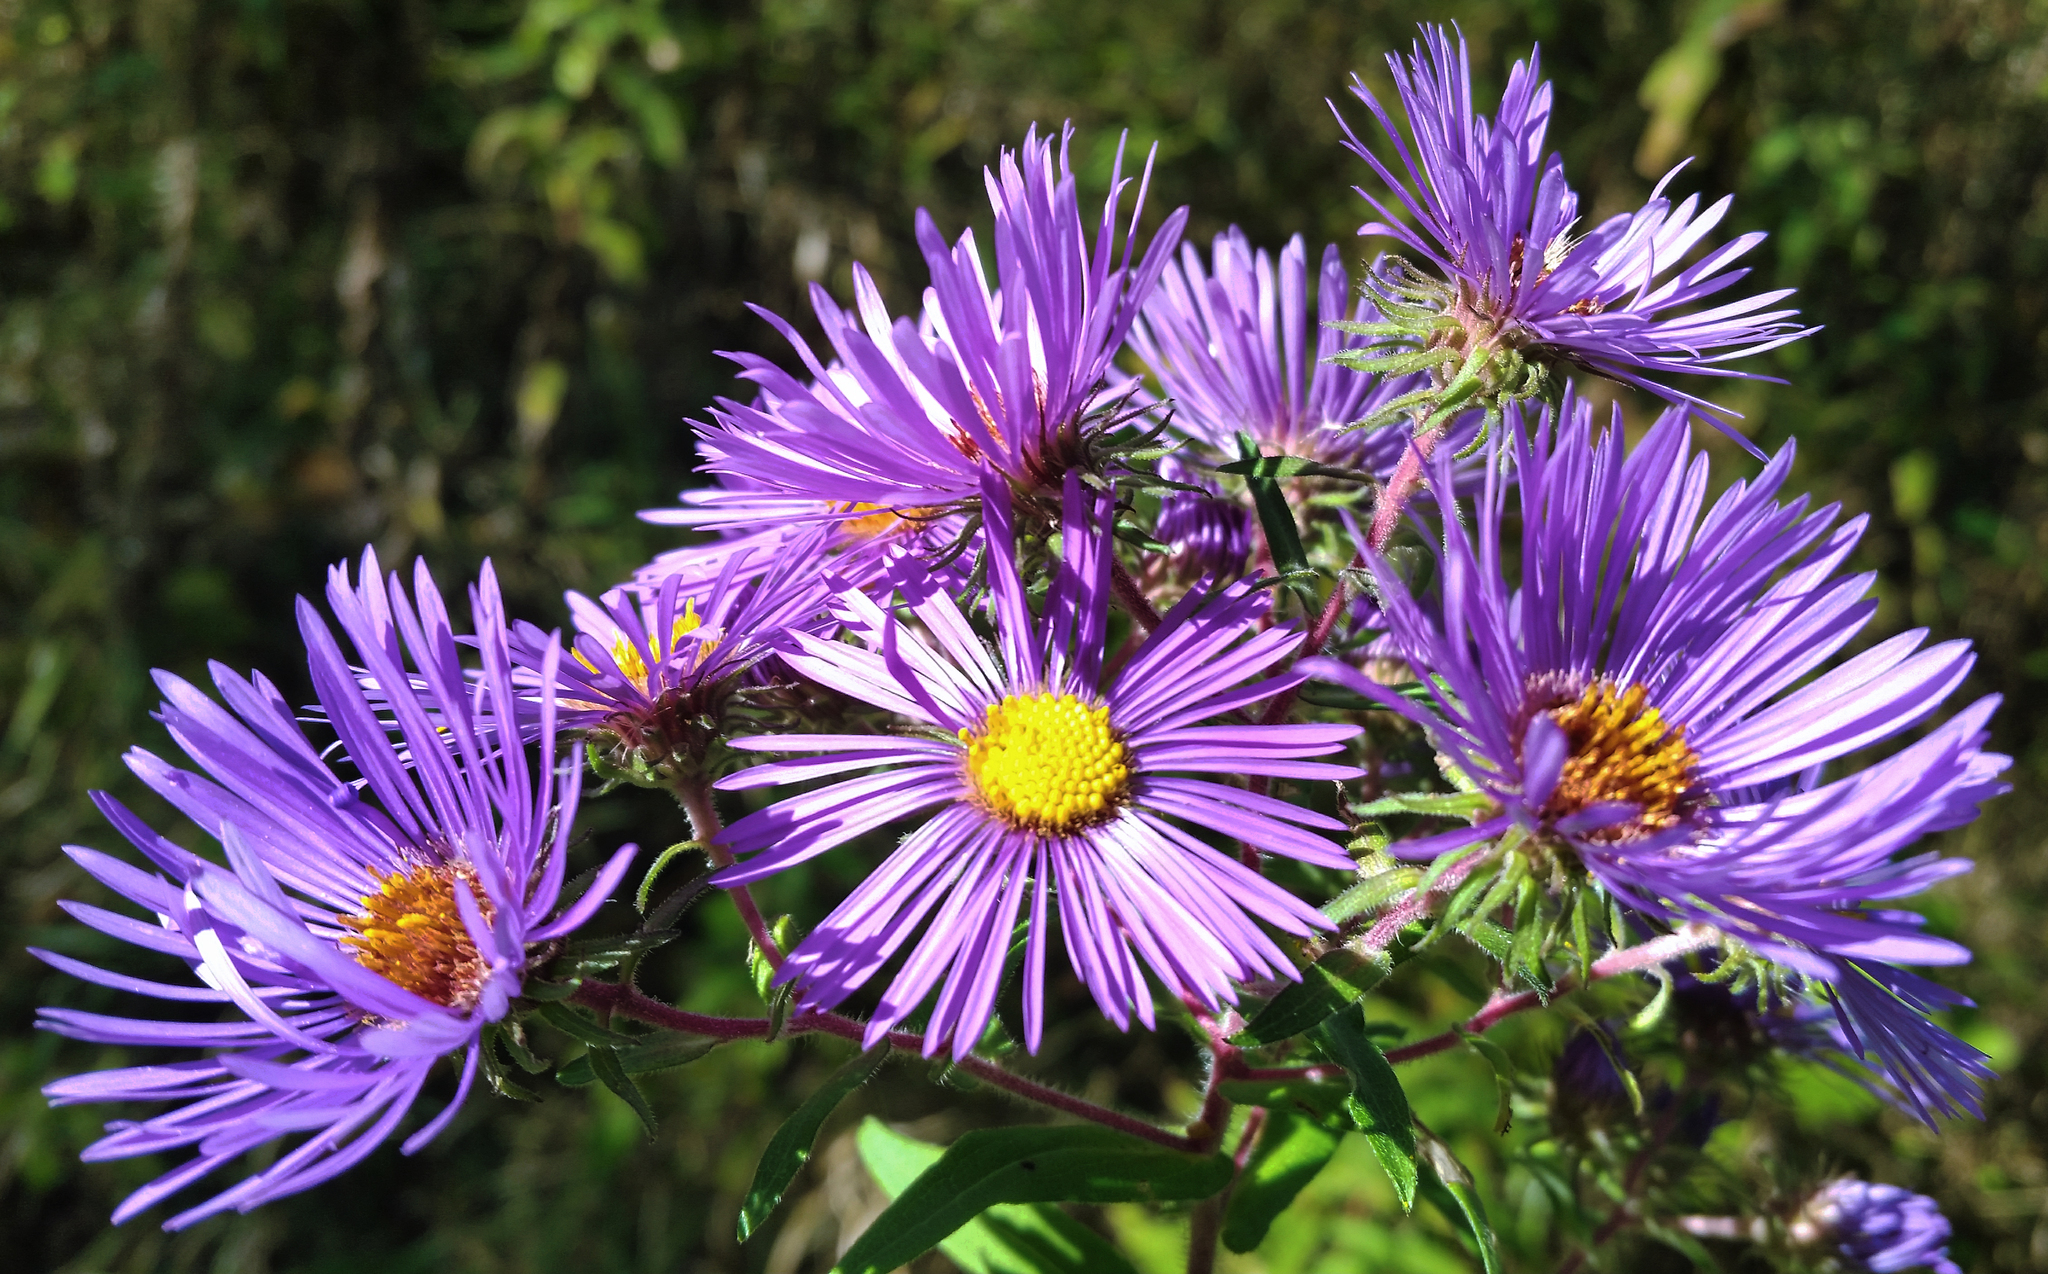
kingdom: Plantae
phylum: Tracheophyta
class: Magnoliopsida
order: Asterales
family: Asteraceae
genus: Symphyotrichum
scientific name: Symphyotrichum novae-angliae
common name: Michaelmas daisy
